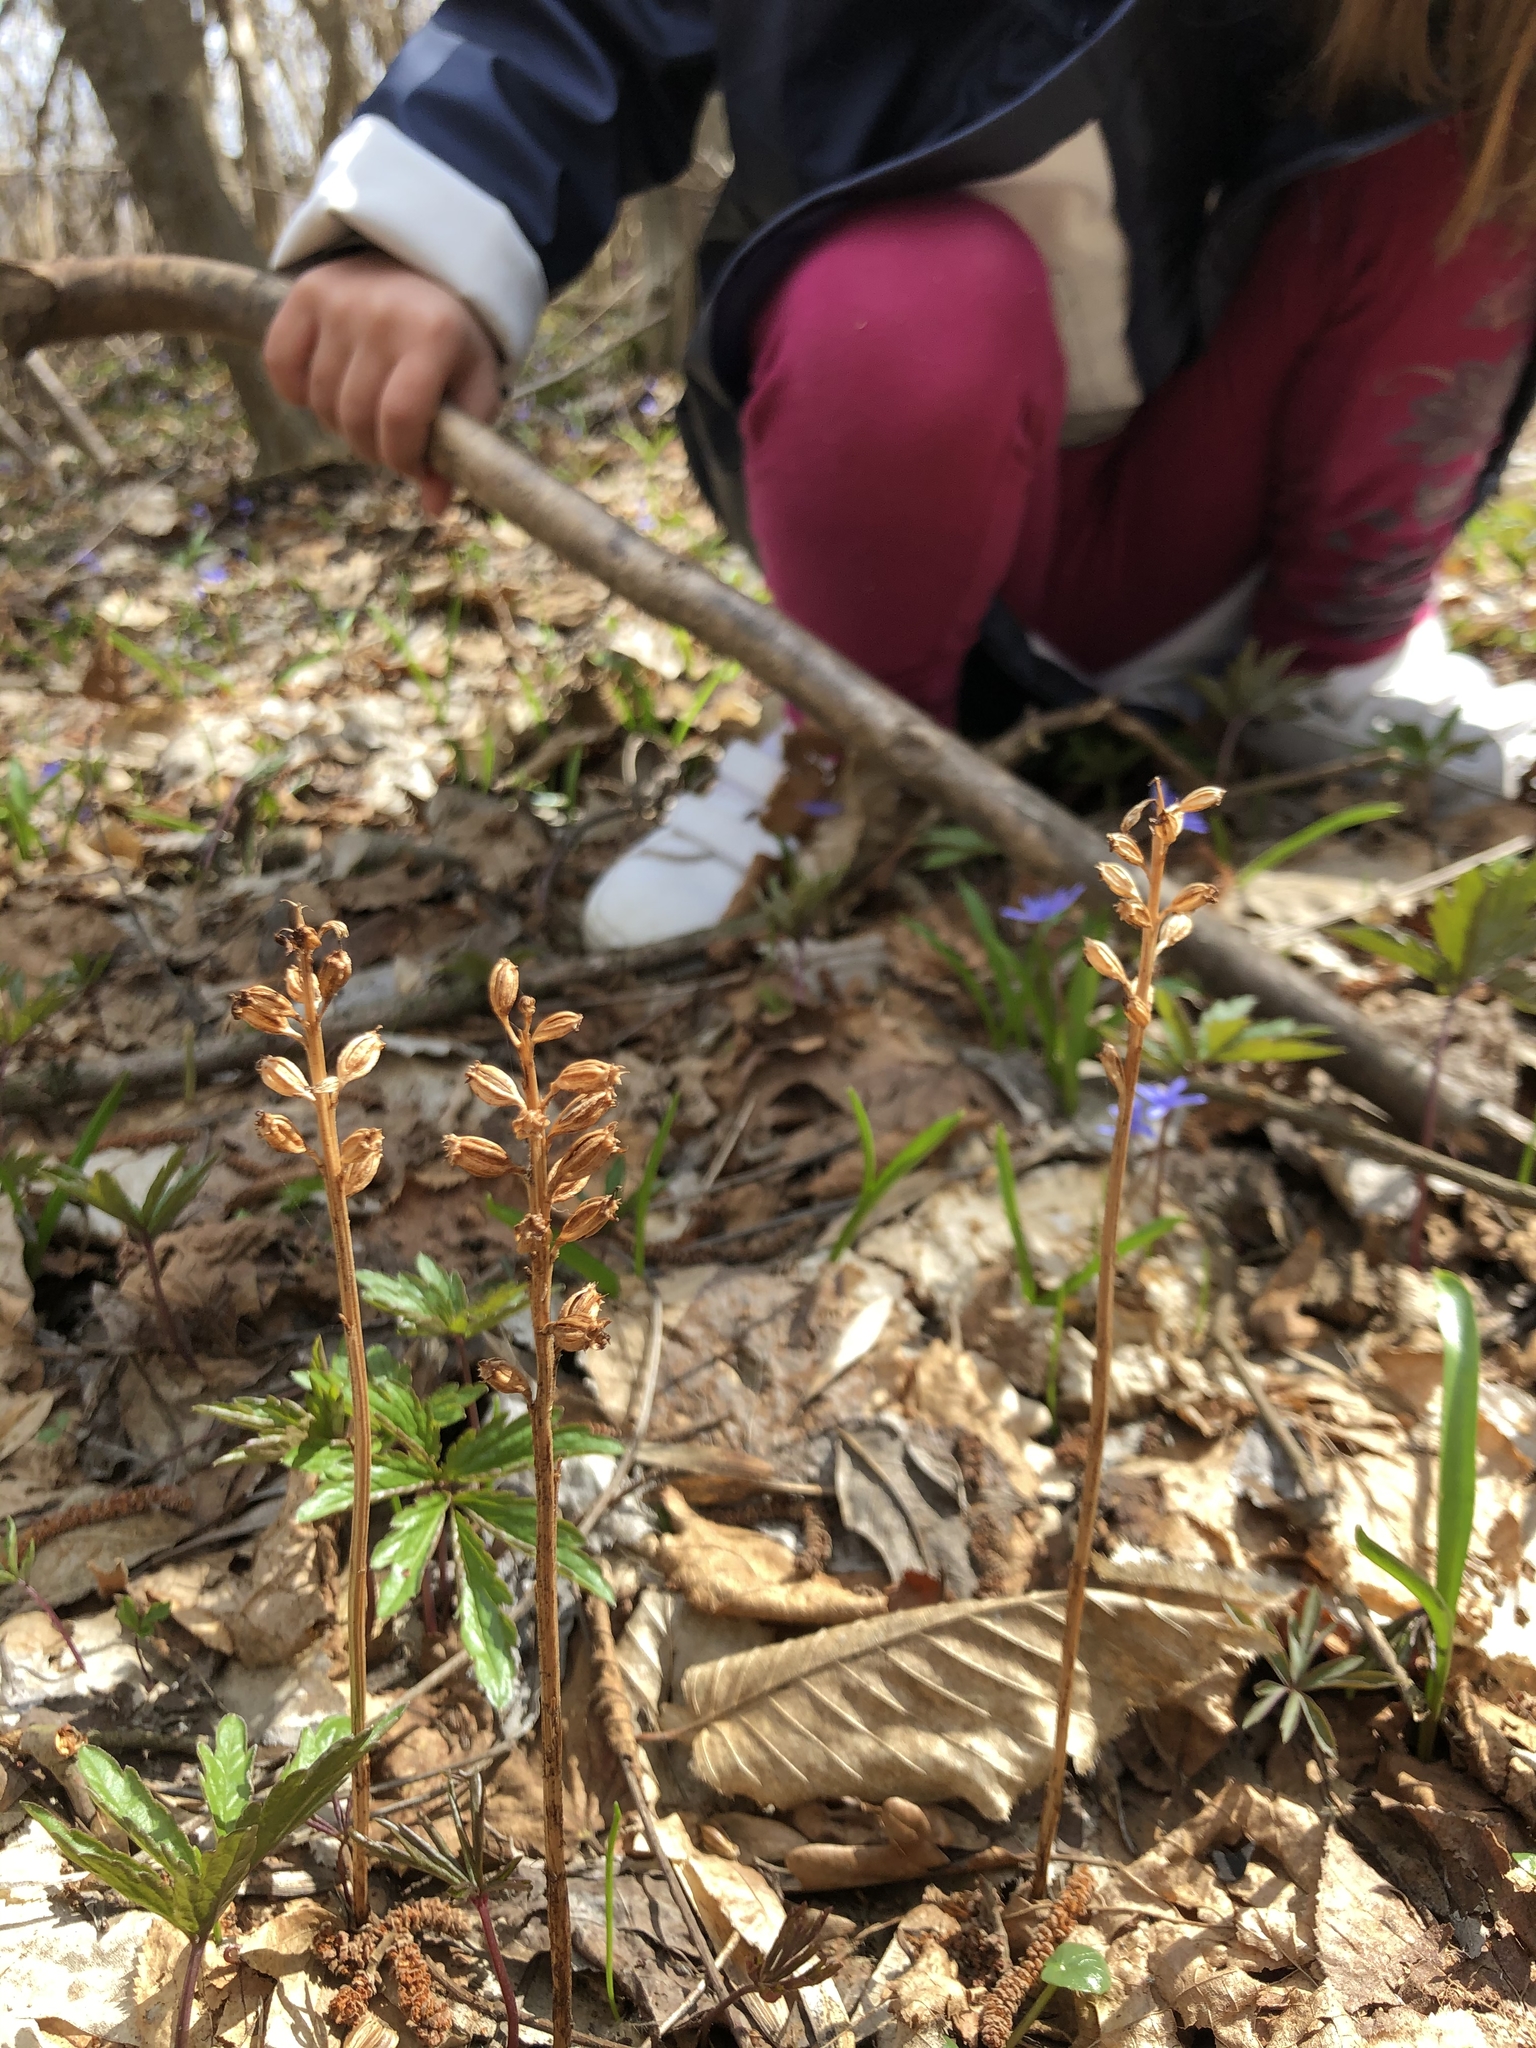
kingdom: Plantae
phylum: Tracheophyta
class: Liliopsida
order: Asparagales
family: Orchidaceae
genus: Neottia
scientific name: Neottia nidus-avis
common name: Bird's-nest orchid
